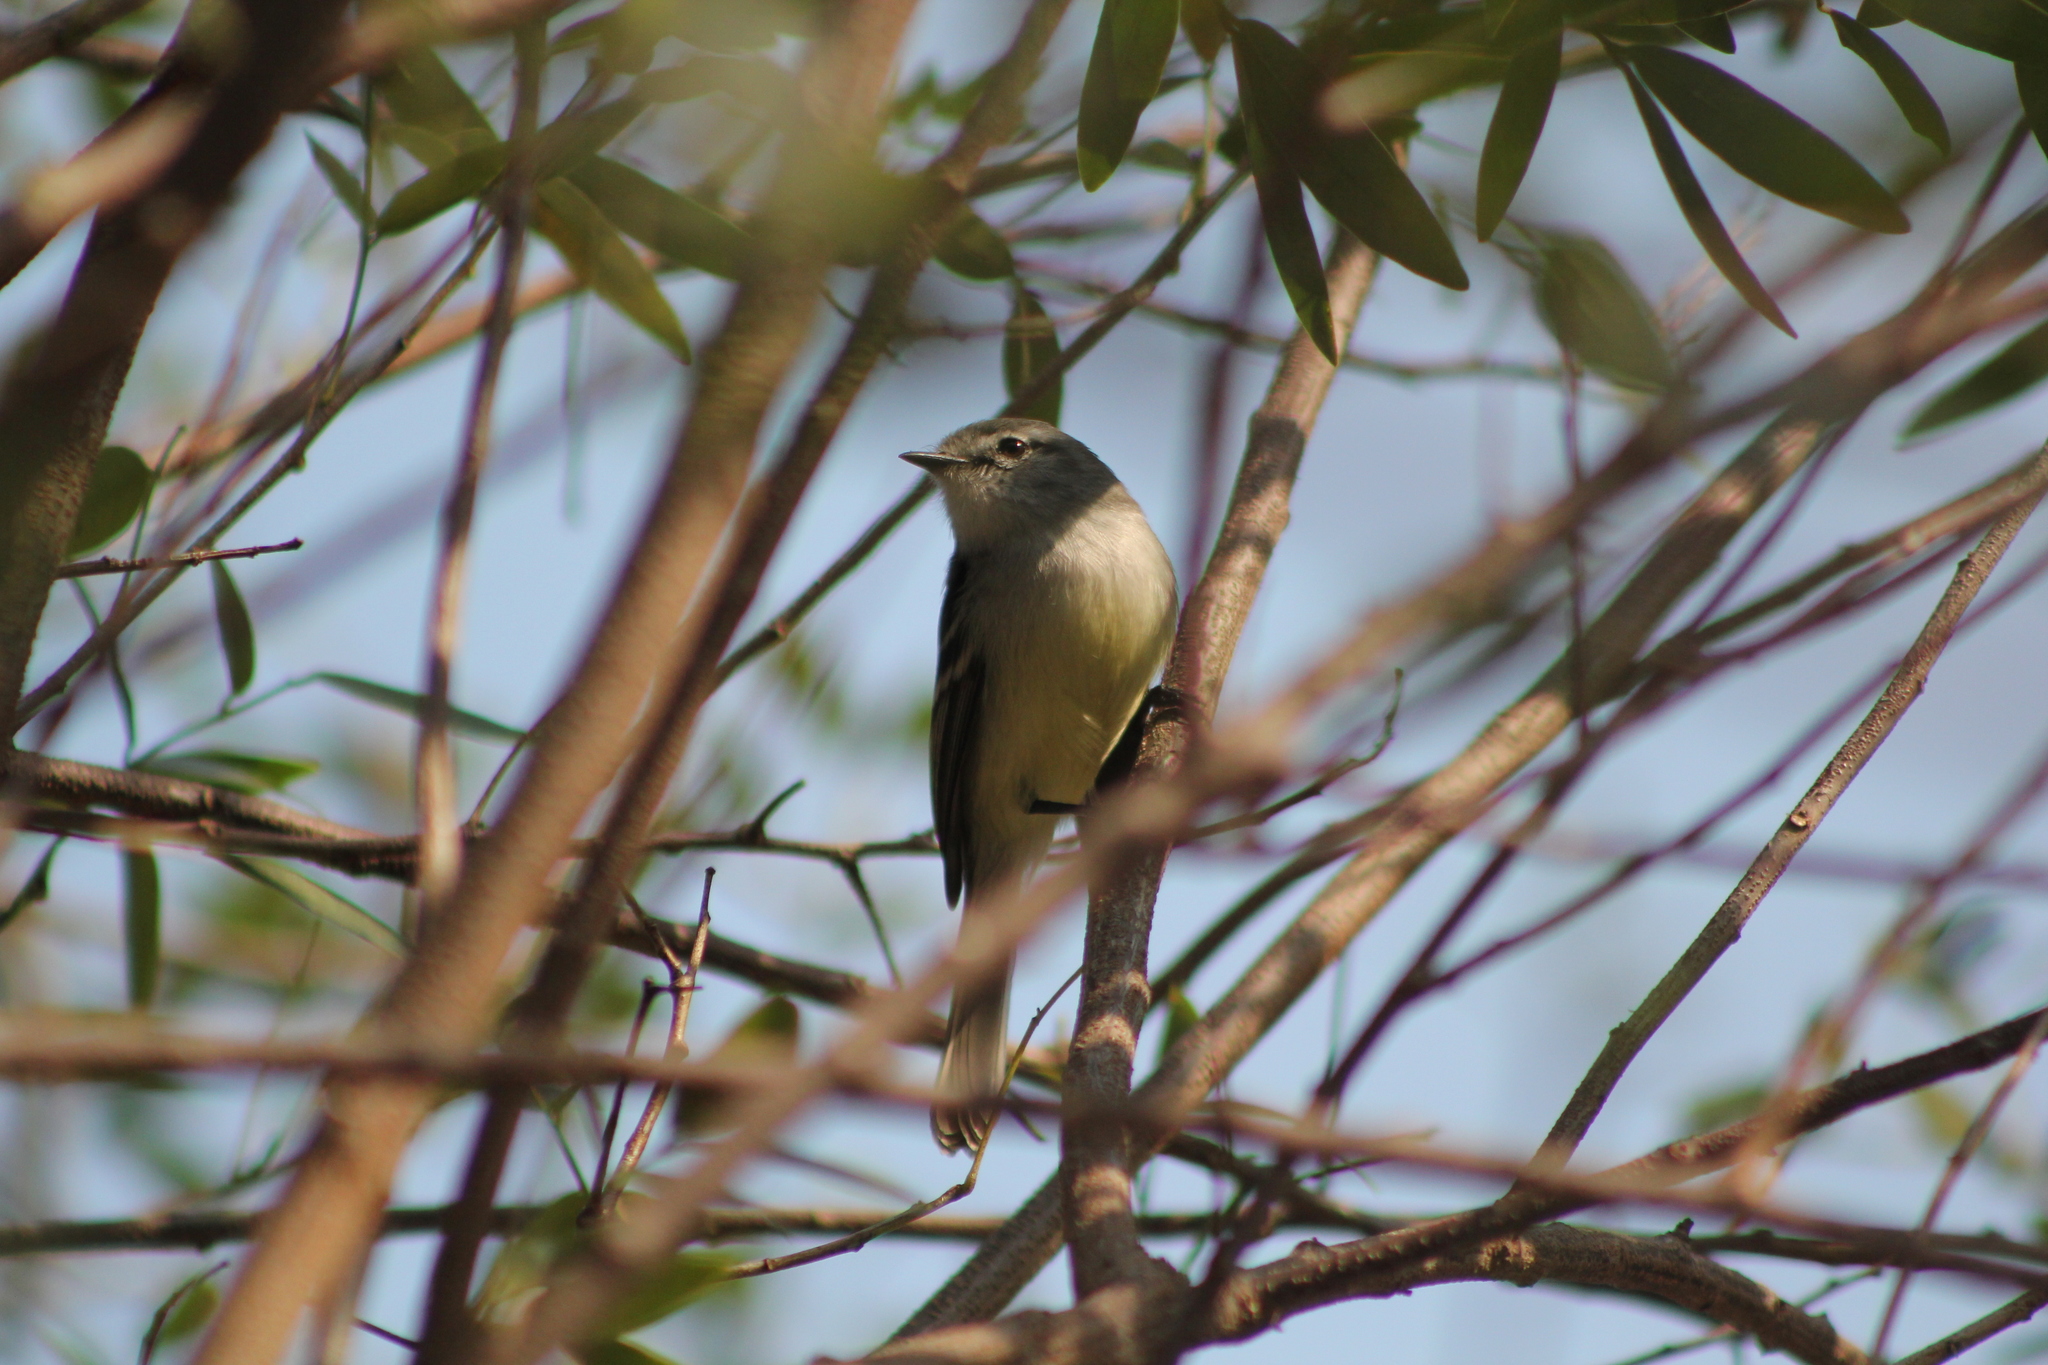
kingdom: Animalia
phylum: Chordata
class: Aves
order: Passeriformes
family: Tyrannidae
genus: Serpophaga
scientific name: Serpophaga griseicapilla
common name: Straneck's tyrannulet
